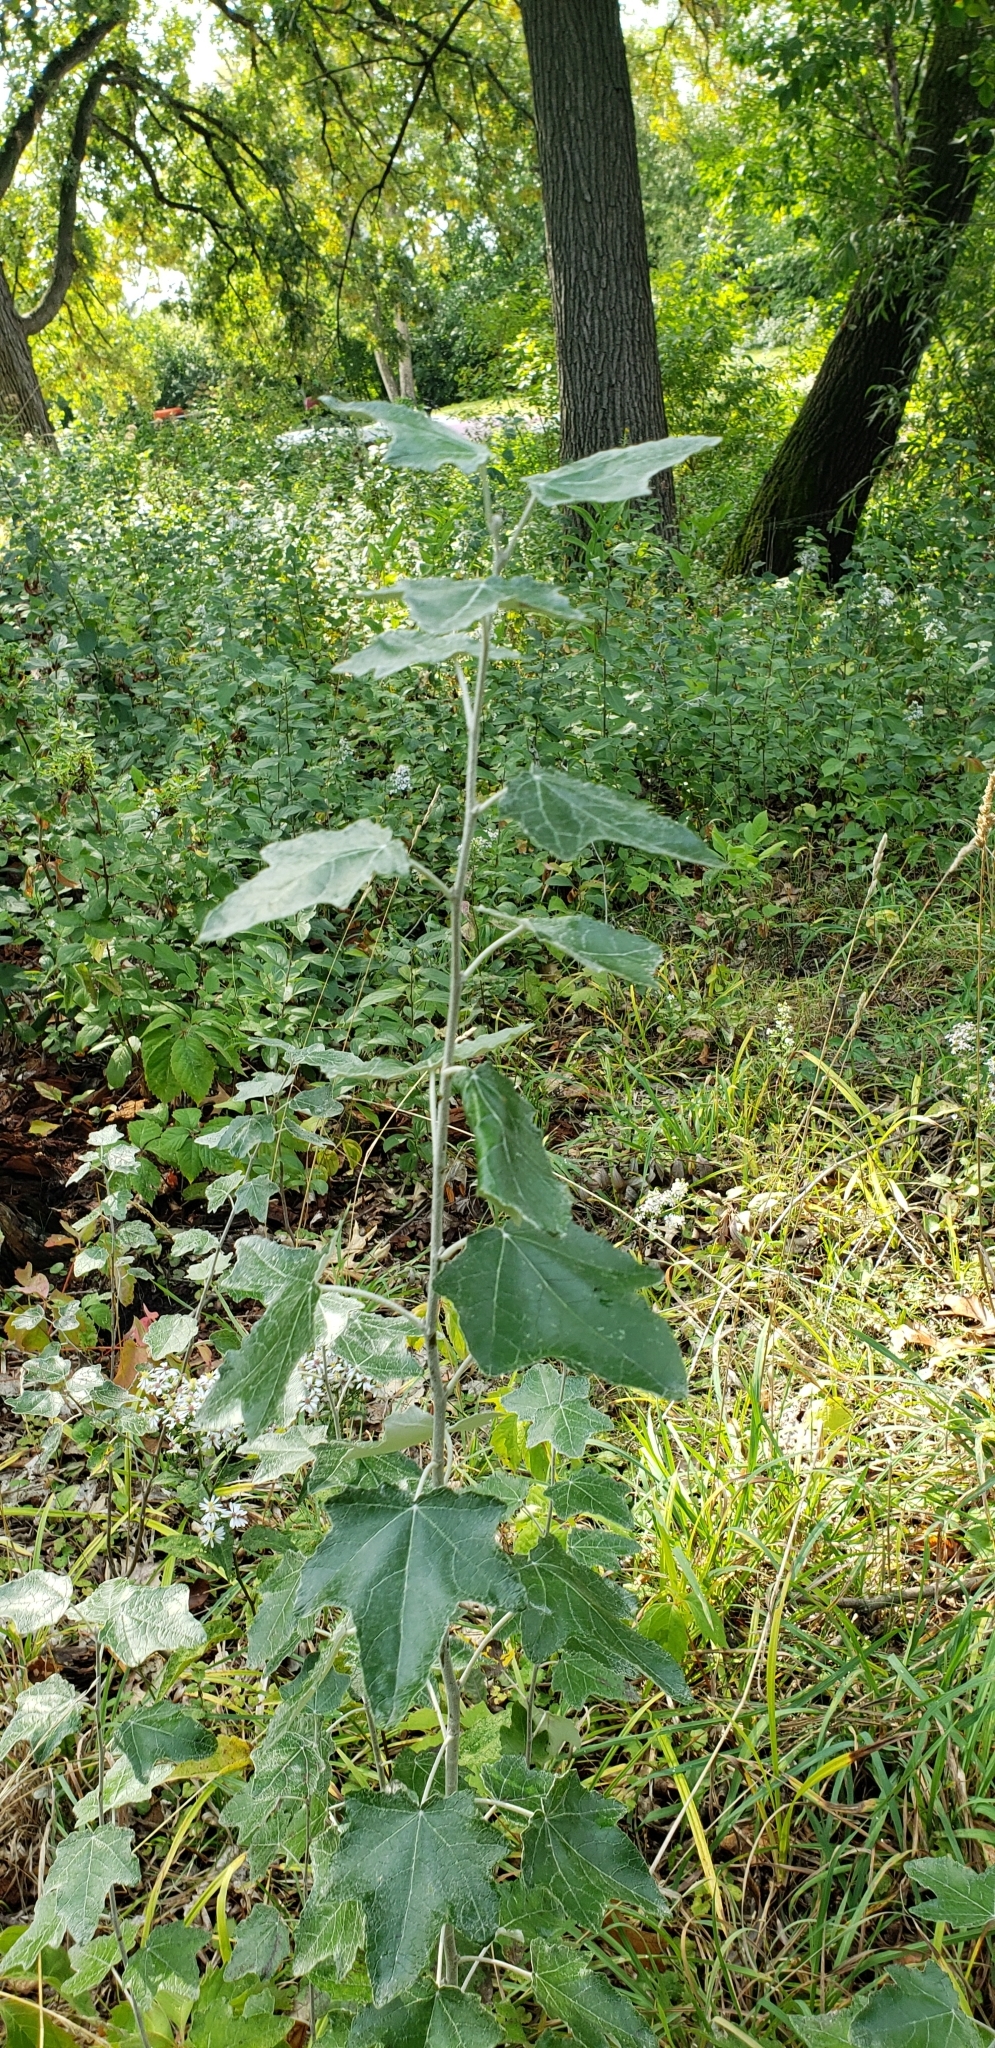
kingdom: Plantae
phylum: Tracheophyta
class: Magnoliopsida
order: Malpighiales
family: Salicaceae
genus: Populus
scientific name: Populus alba
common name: White poplar
